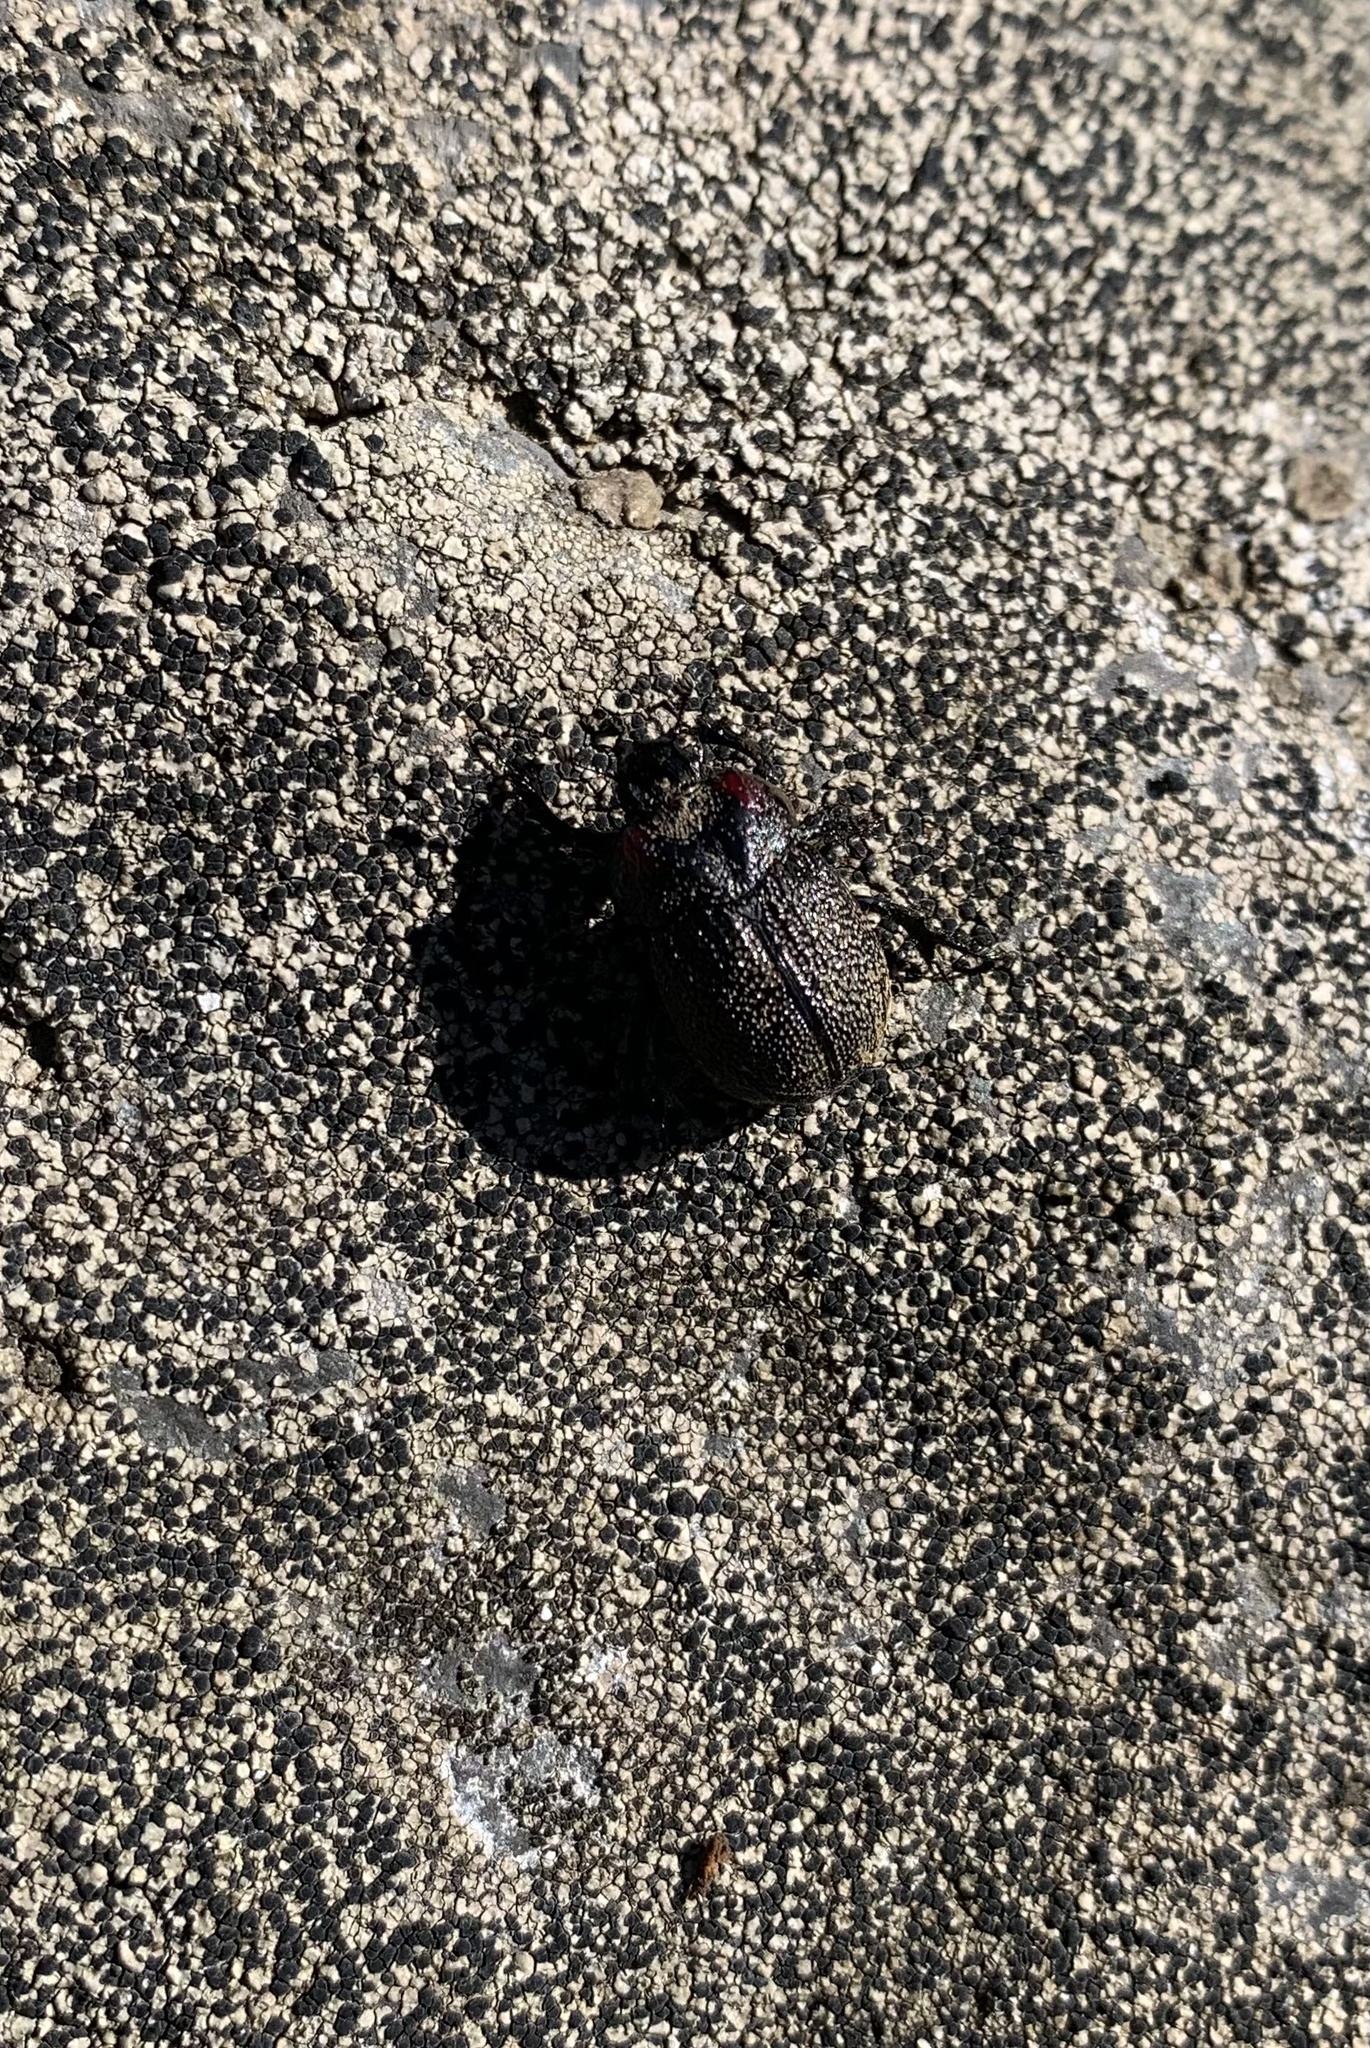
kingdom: Animalia
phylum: Arthropoda
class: Insecta
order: Coleoptera
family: Geotrupidae
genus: Frickius
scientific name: Frickius variolosus
